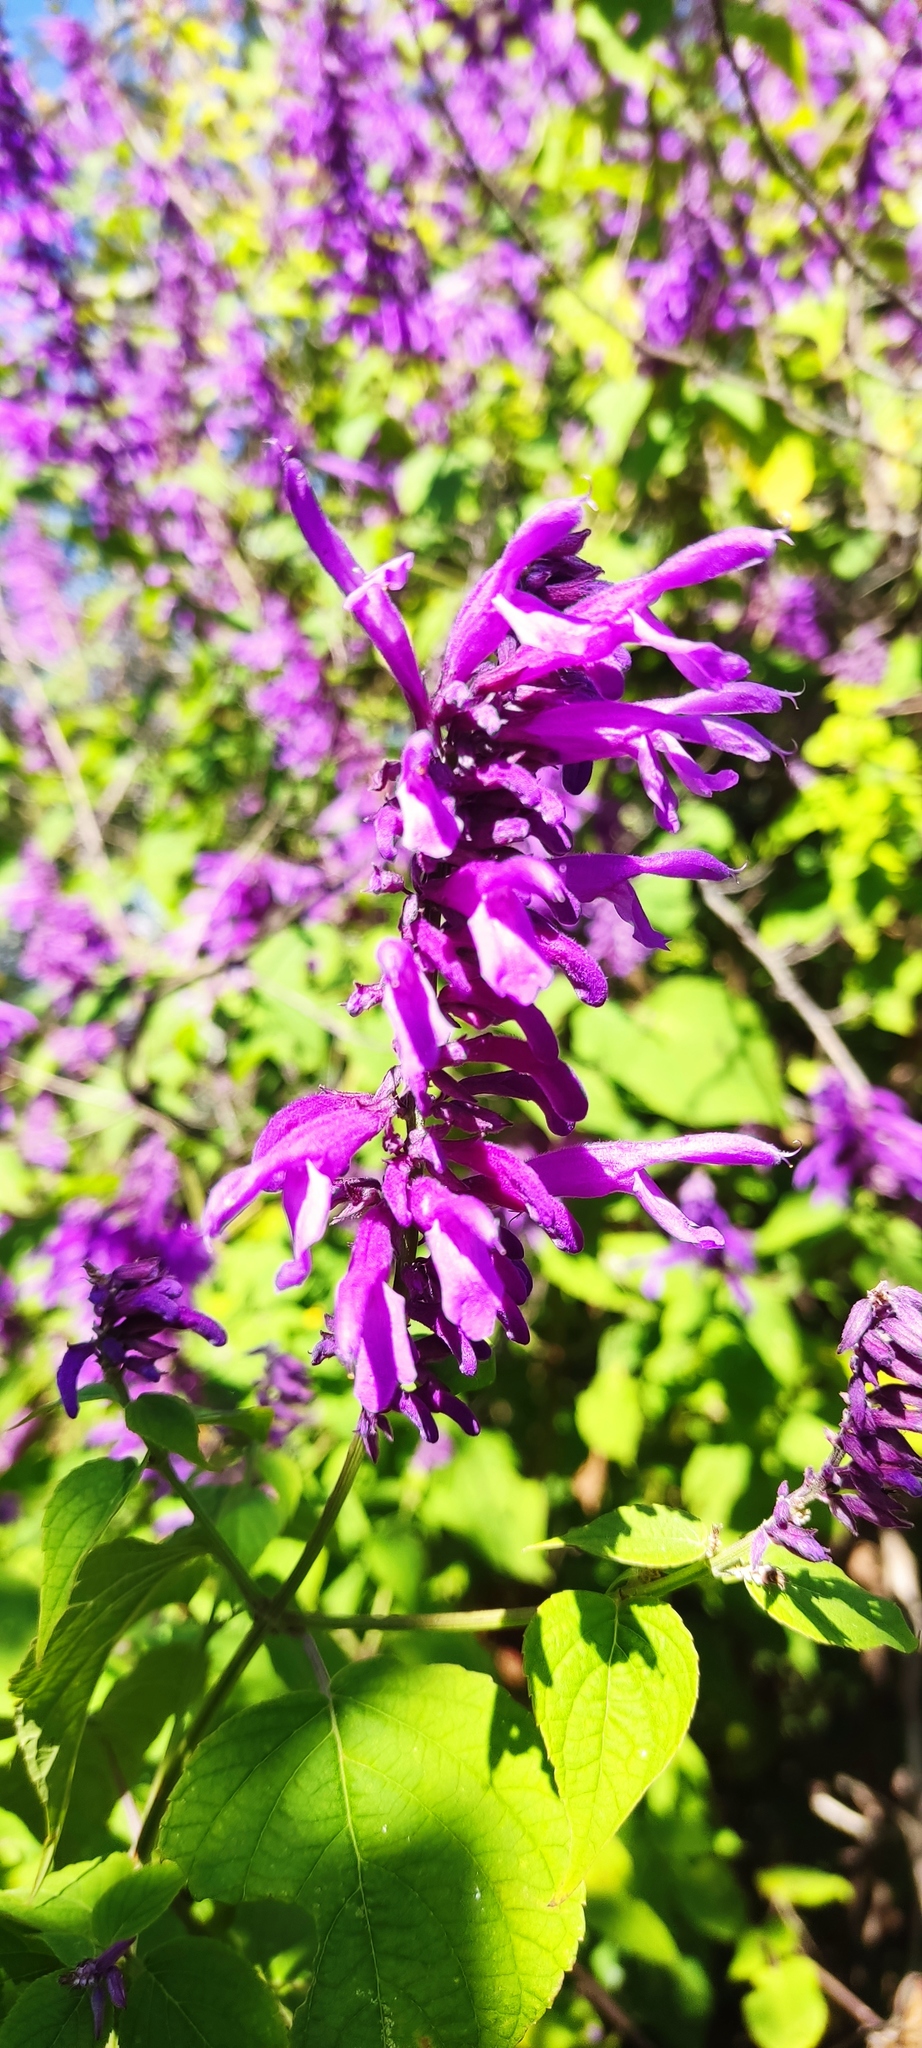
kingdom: Plantae
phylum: Tracheophyta
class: Magnoliopsida
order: Lamiales
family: Lamiaceae
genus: Salvia
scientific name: Salvia purpurea
